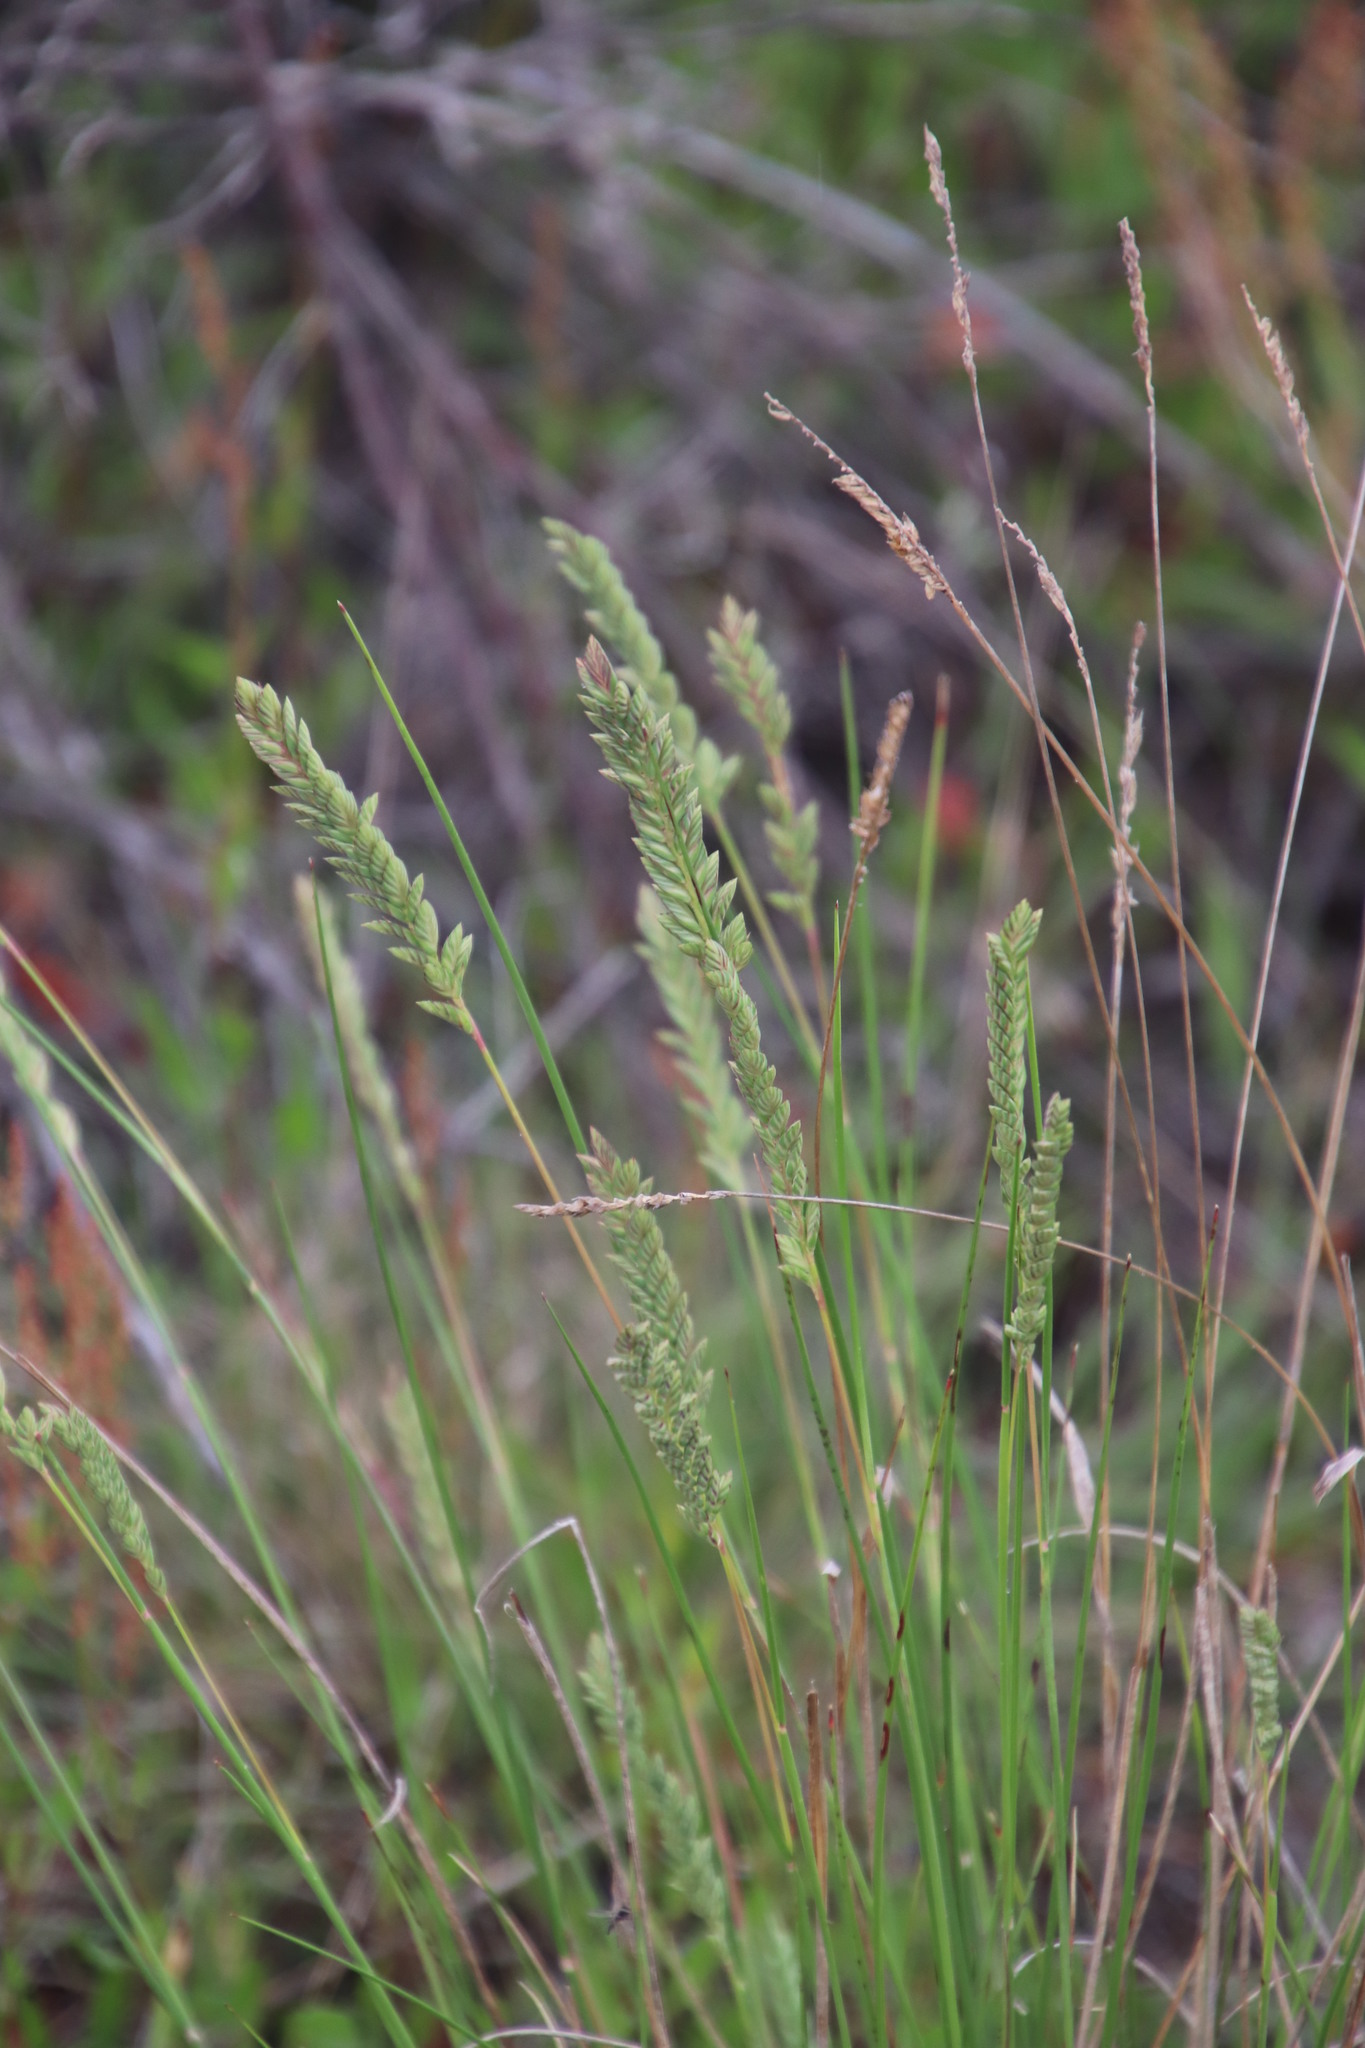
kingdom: Plantae
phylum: Tracheophyta
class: Liliopsida
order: Poales
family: Poaceae
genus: Tribolium
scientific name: Tribolium uniolae
